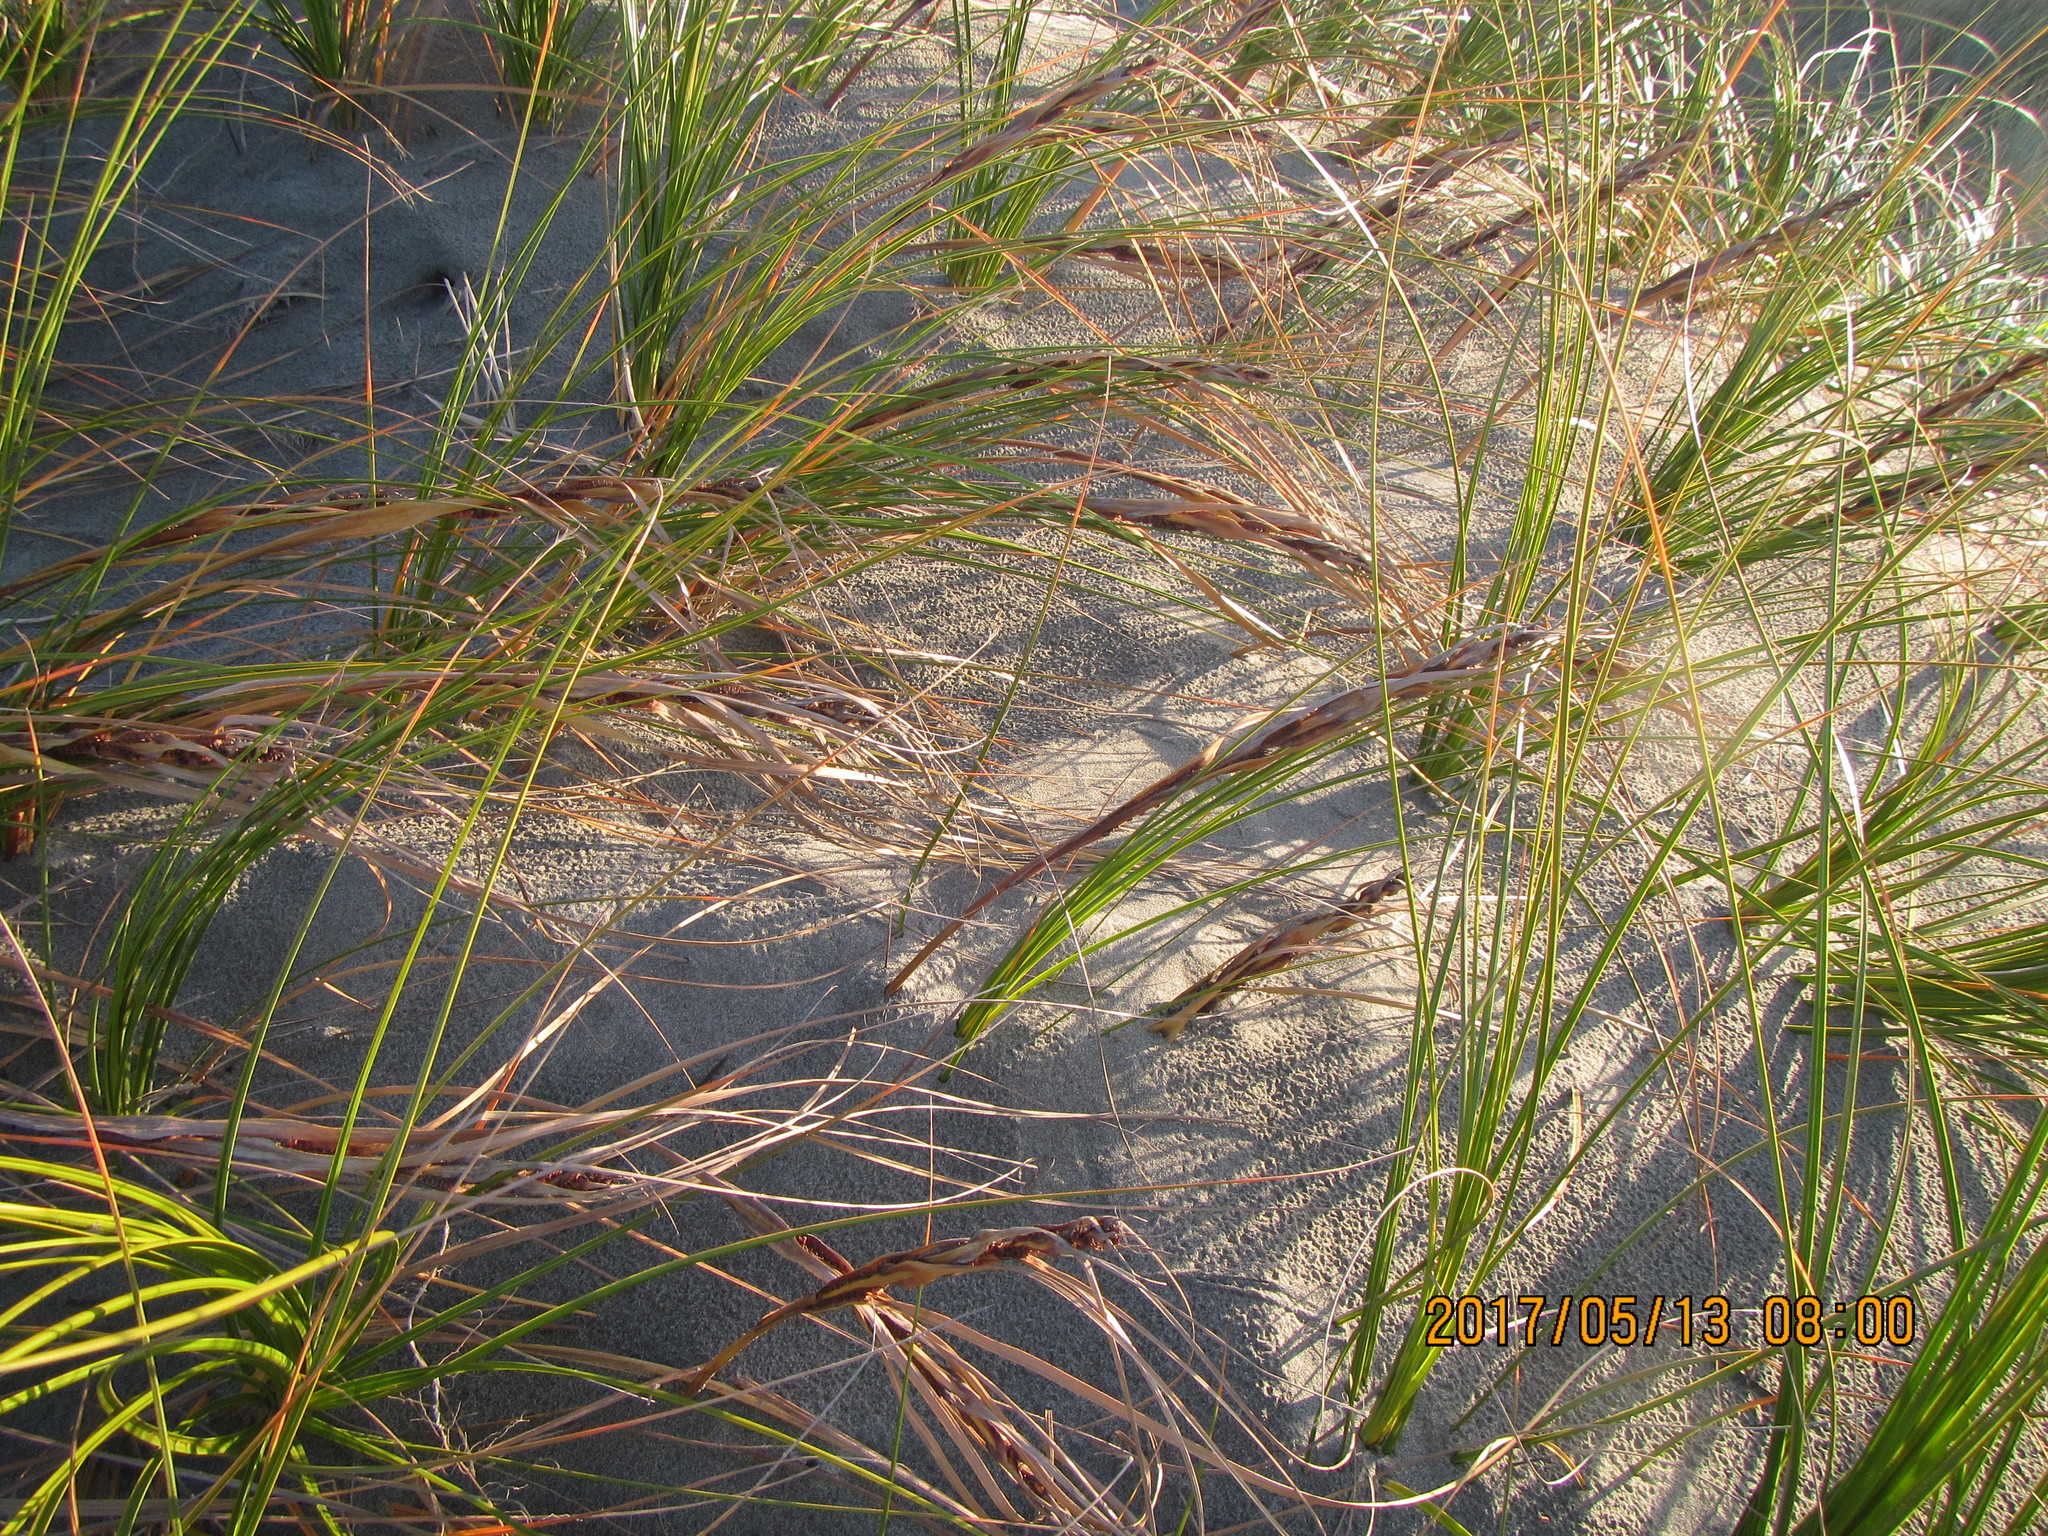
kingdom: Plantae
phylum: Tracheophyta
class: Liliopsida
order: Poales
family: Cyperaceae
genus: Ficinia
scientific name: Ficinia spiralis
